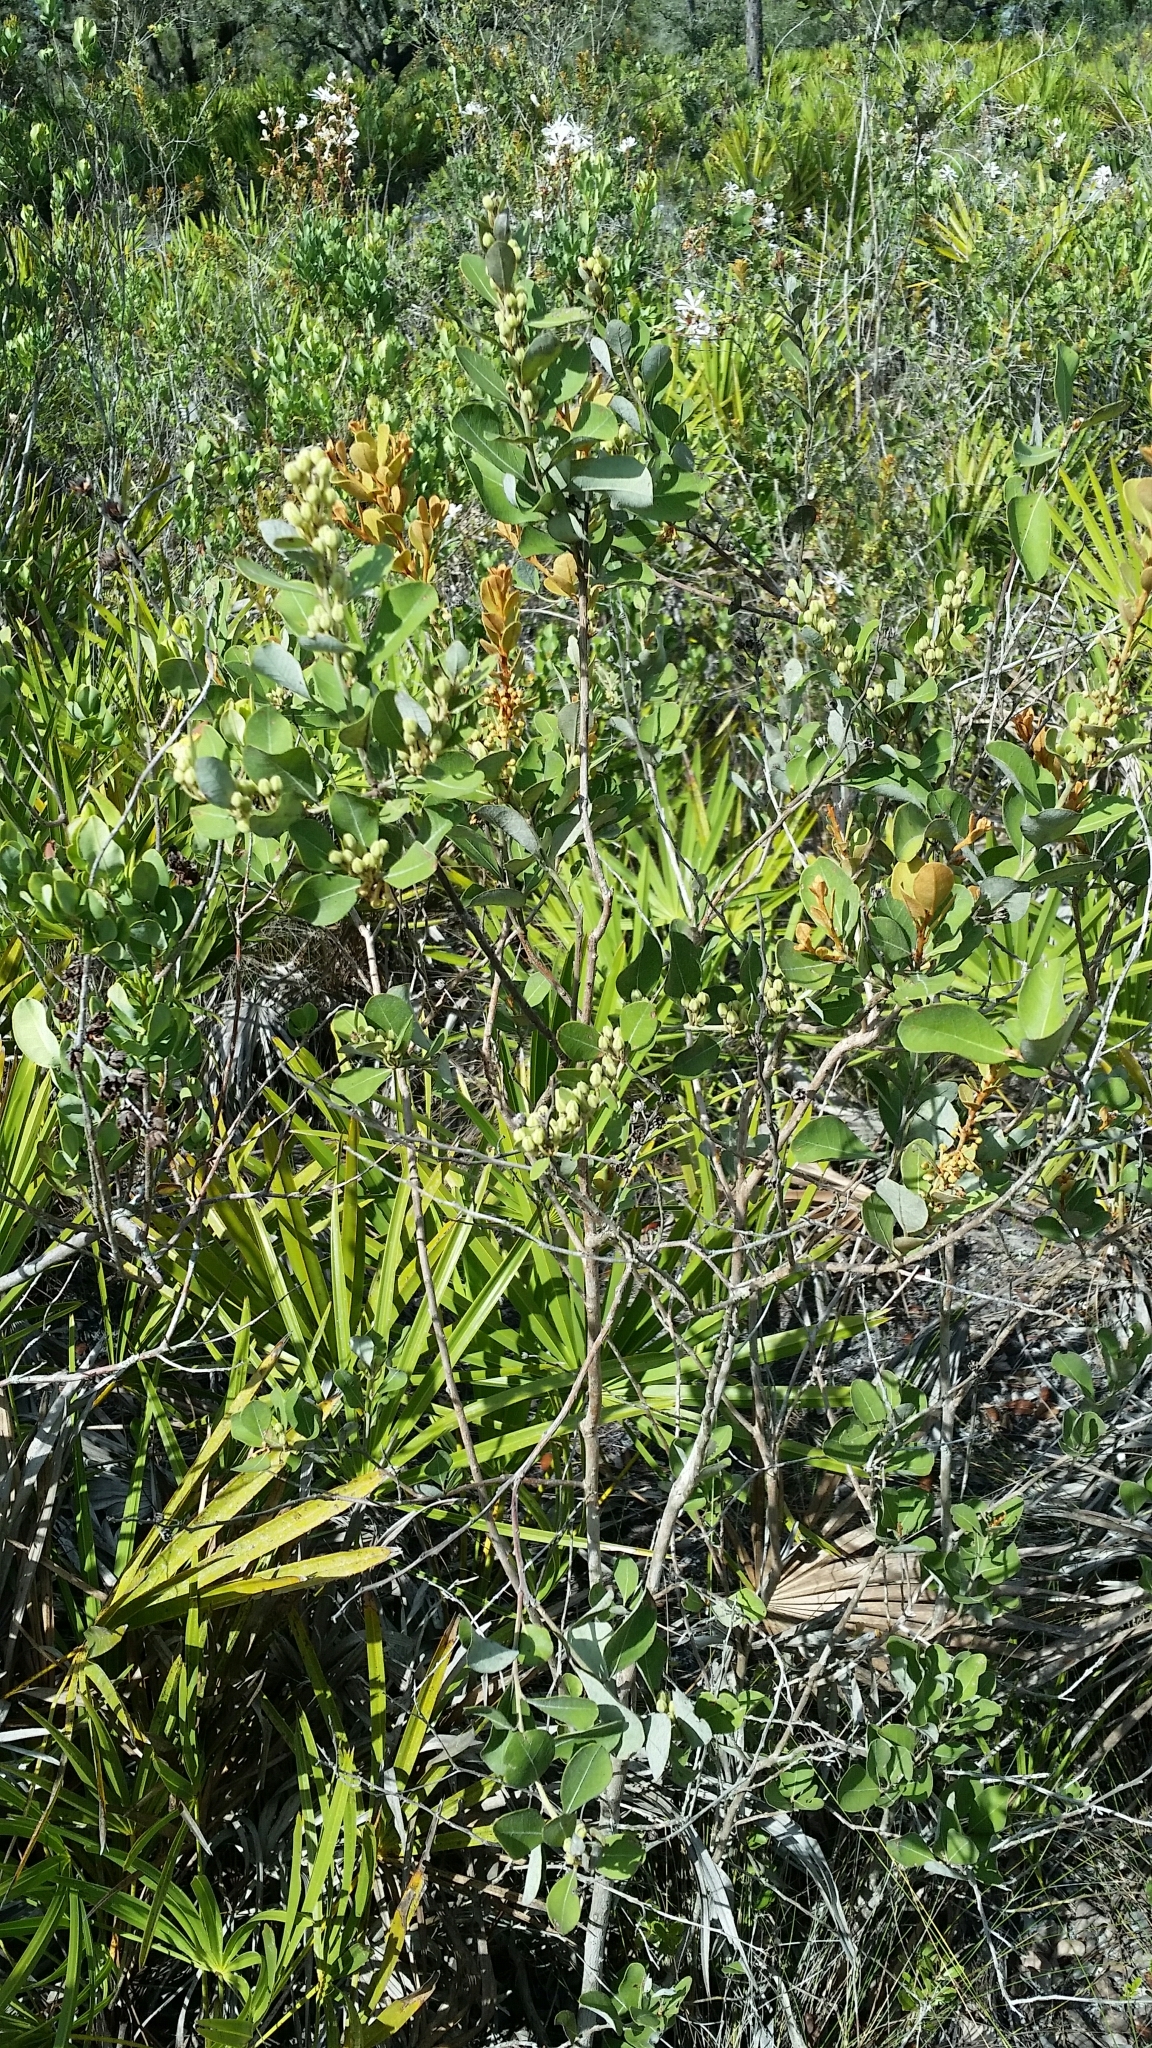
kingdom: Plantae
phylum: Tracheophyta
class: Magnoliopsida
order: Ericales
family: Ericaceae
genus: Lyonia
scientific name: Lyonia fruticosa
